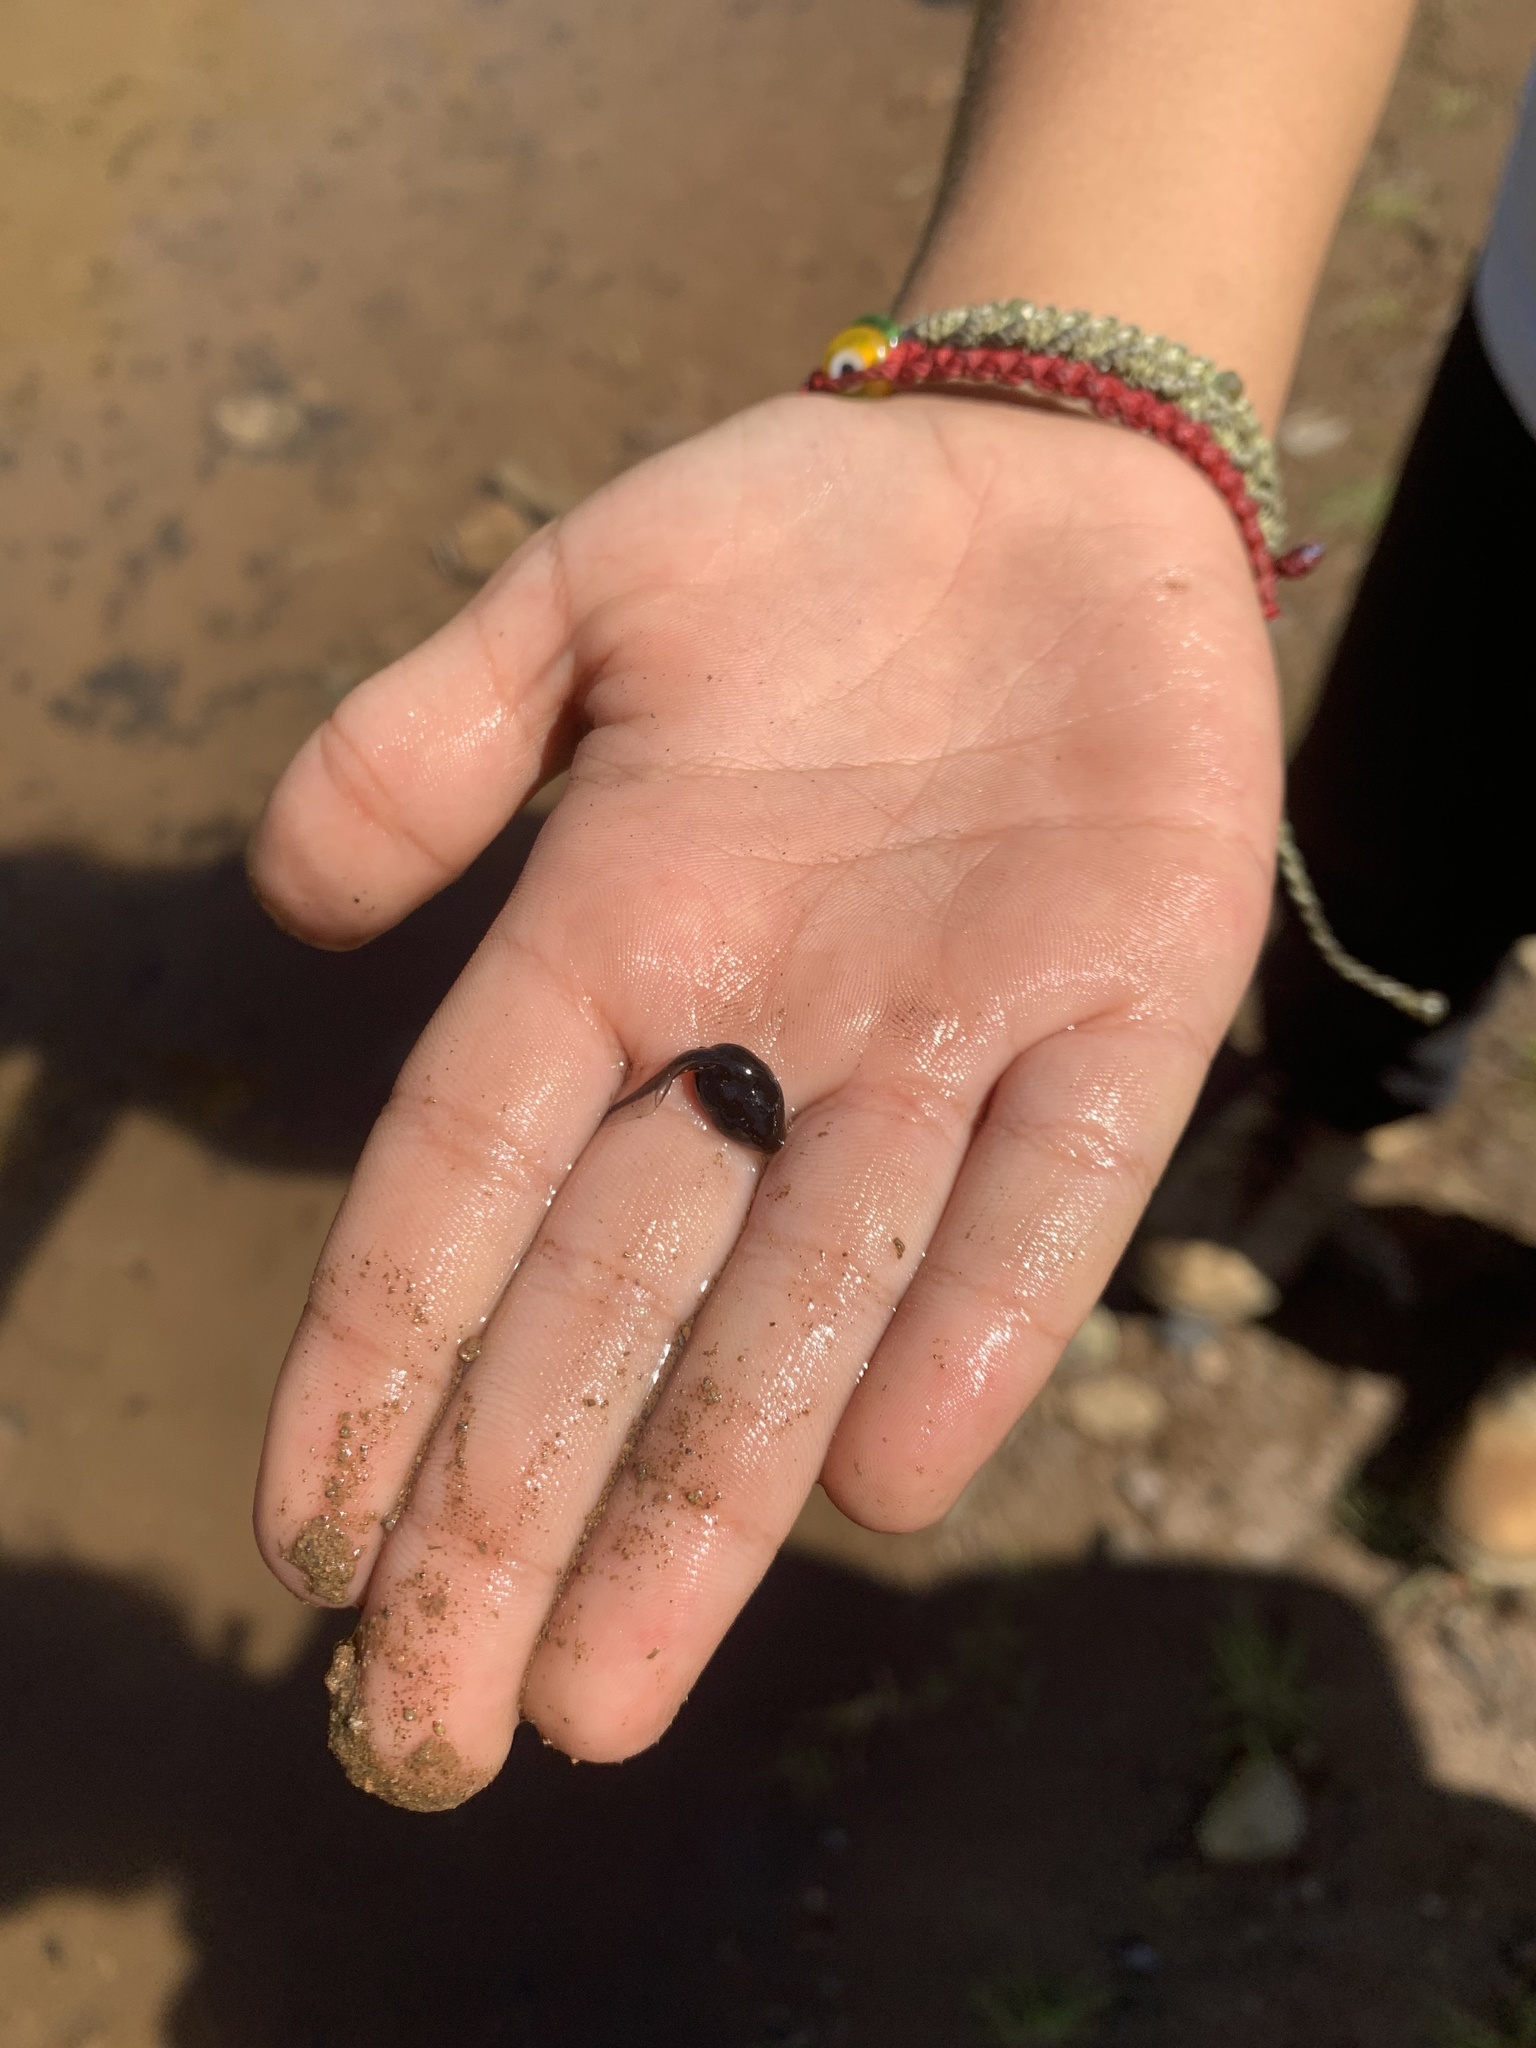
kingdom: Animalia
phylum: Chordata
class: Amphibia
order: Anura
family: Bufonidae
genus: Anaxyrus
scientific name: Anaxyrus boreas
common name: Western toad
